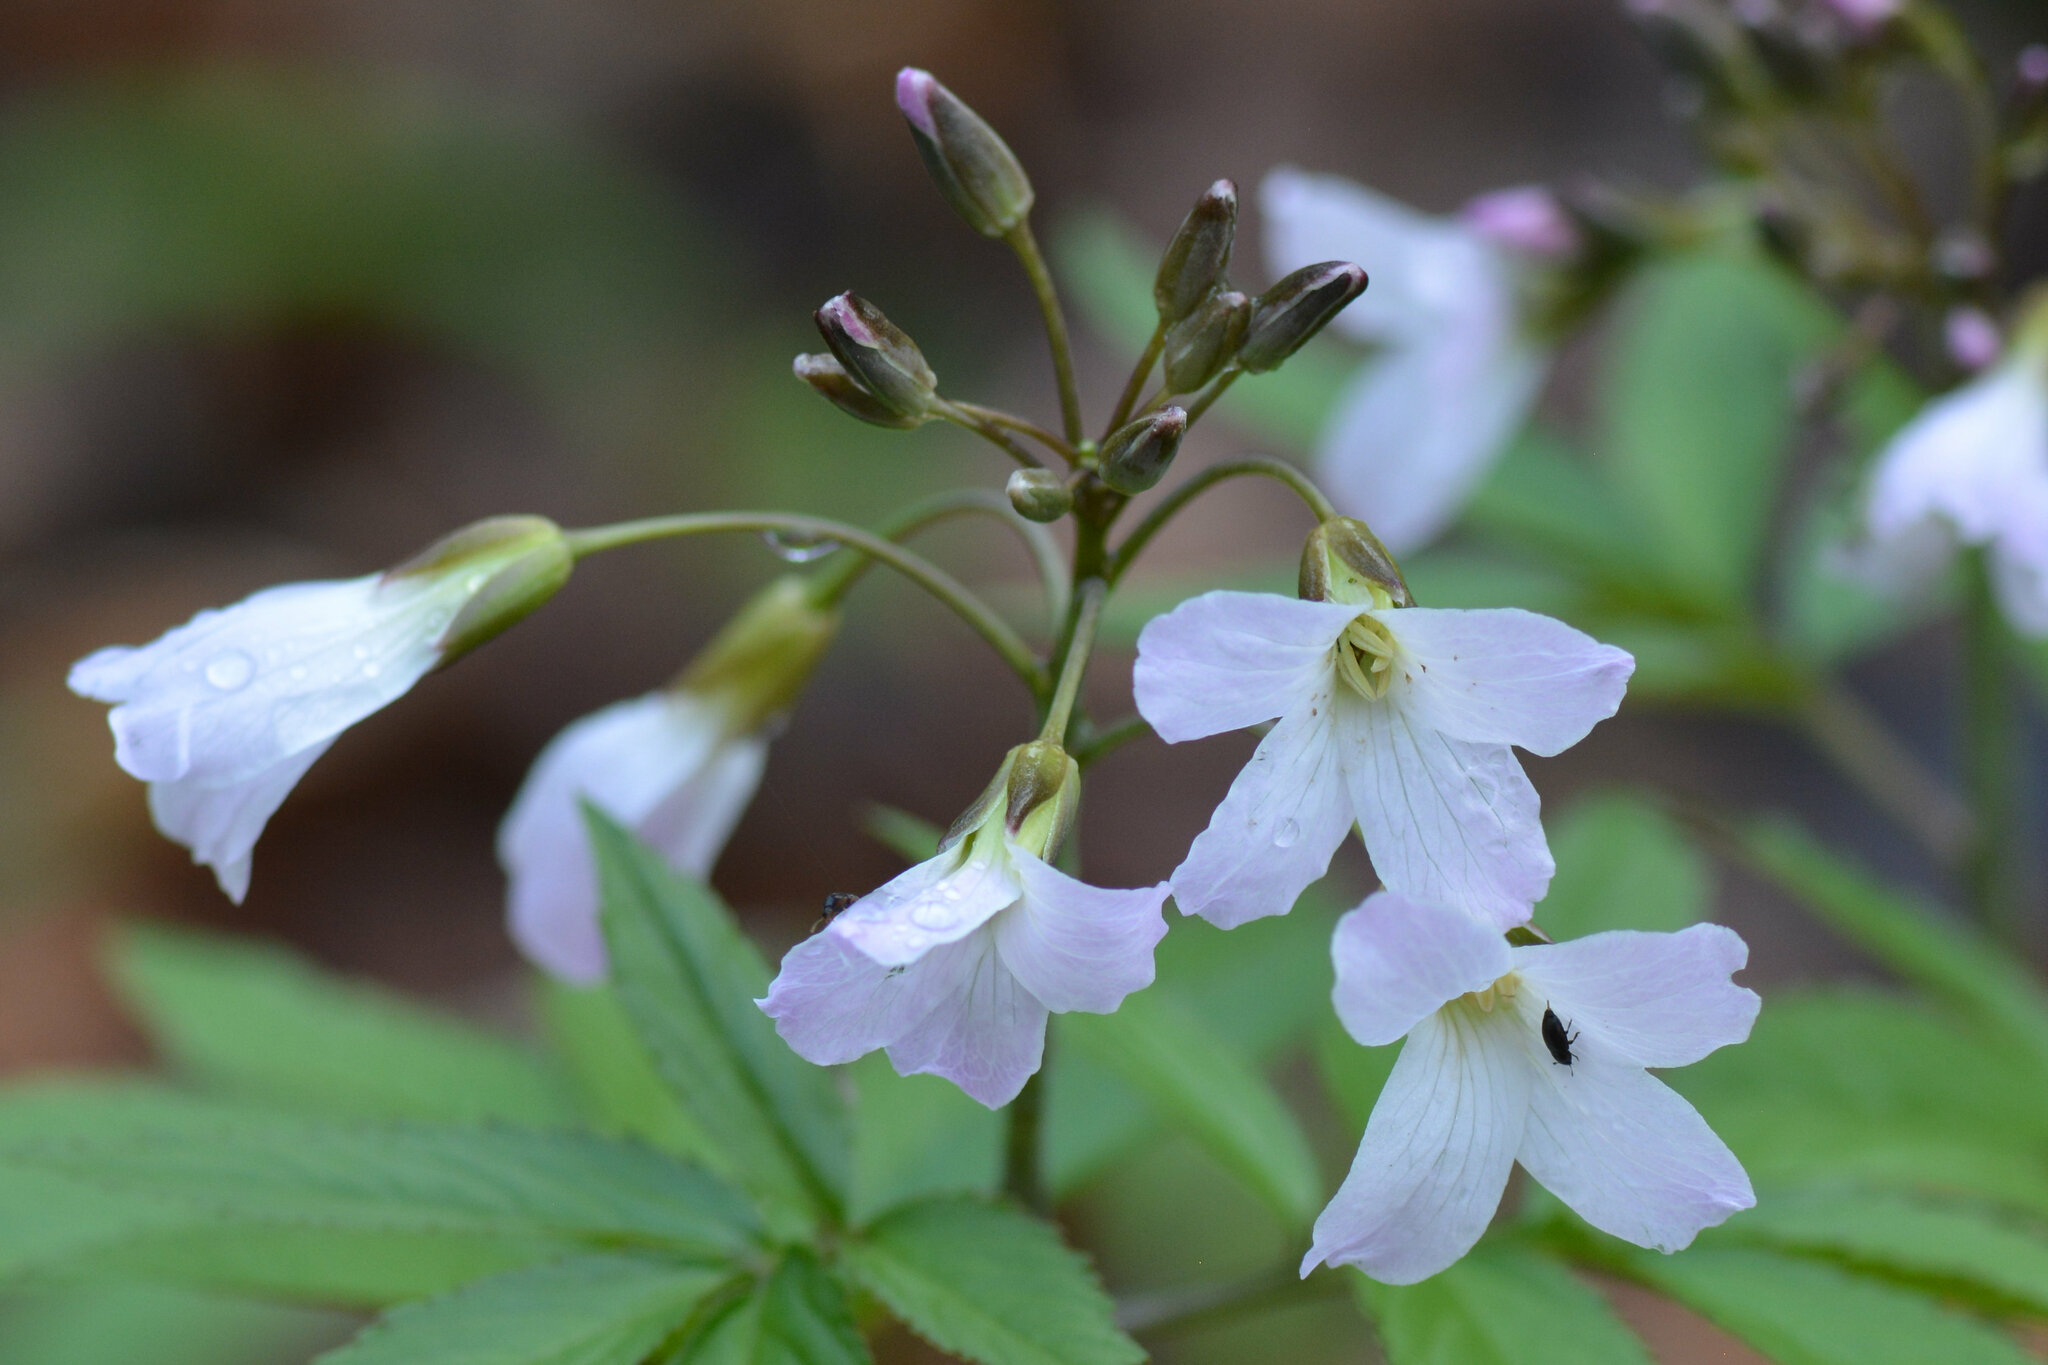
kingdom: Plantae
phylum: Tracheophyta
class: Magnoliopsida
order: Brassicales
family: Brassicaceae
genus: Cardamine
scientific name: Cardamine heptaphylla
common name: Pinnate coralroot
